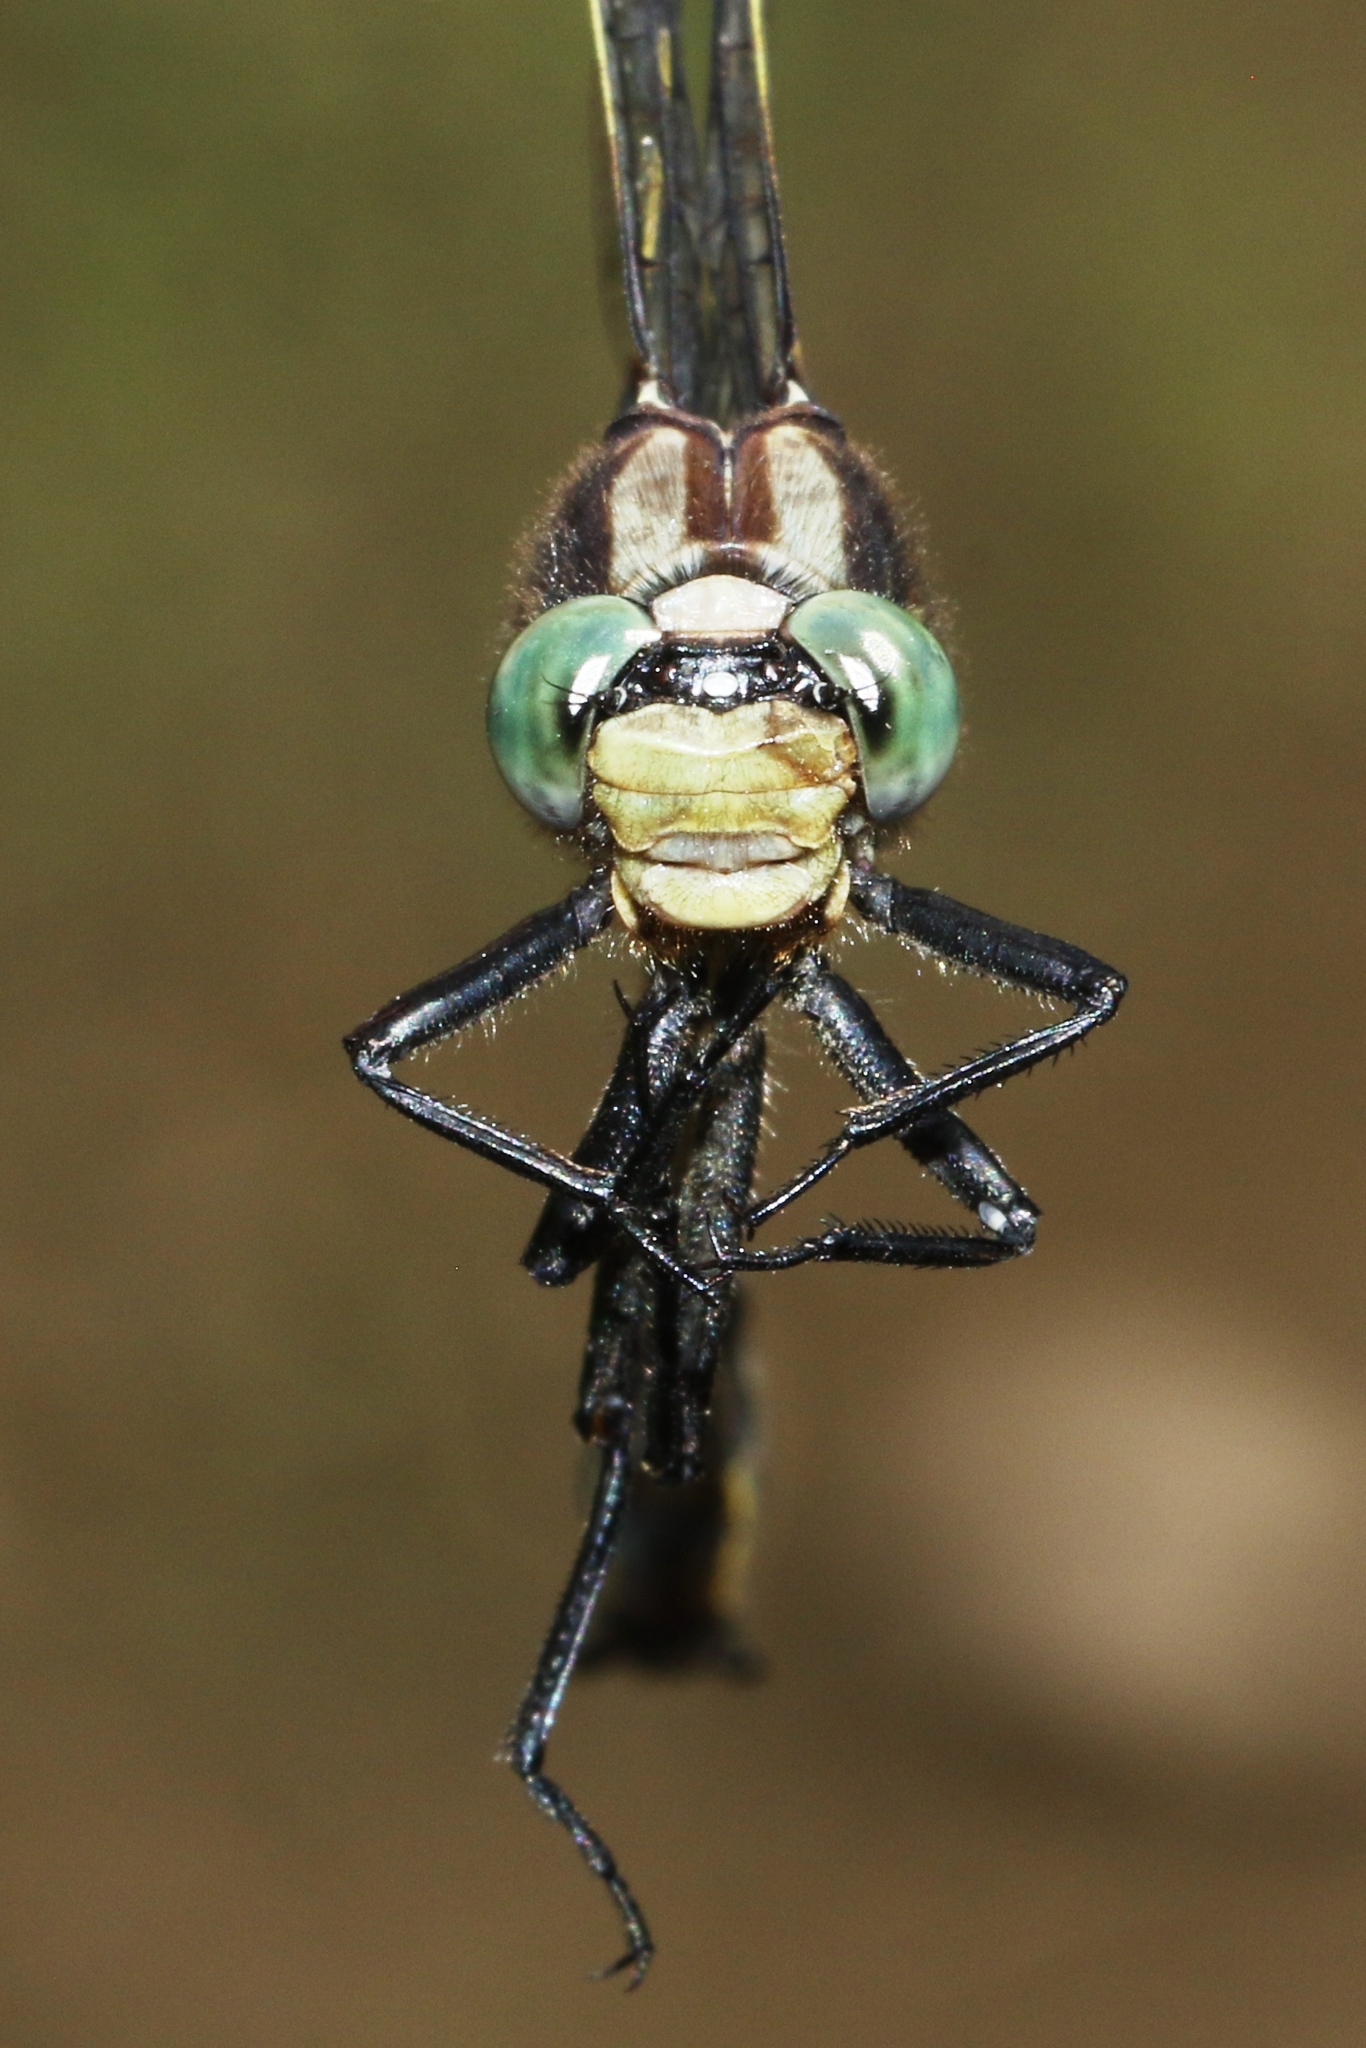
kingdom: Animalia
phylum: Arthropoda
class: Insecta
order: Odonata
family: Gomphidae
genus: Phanogomphus
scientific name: Phanogomphus descriptus
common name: Harpoon clubtail
